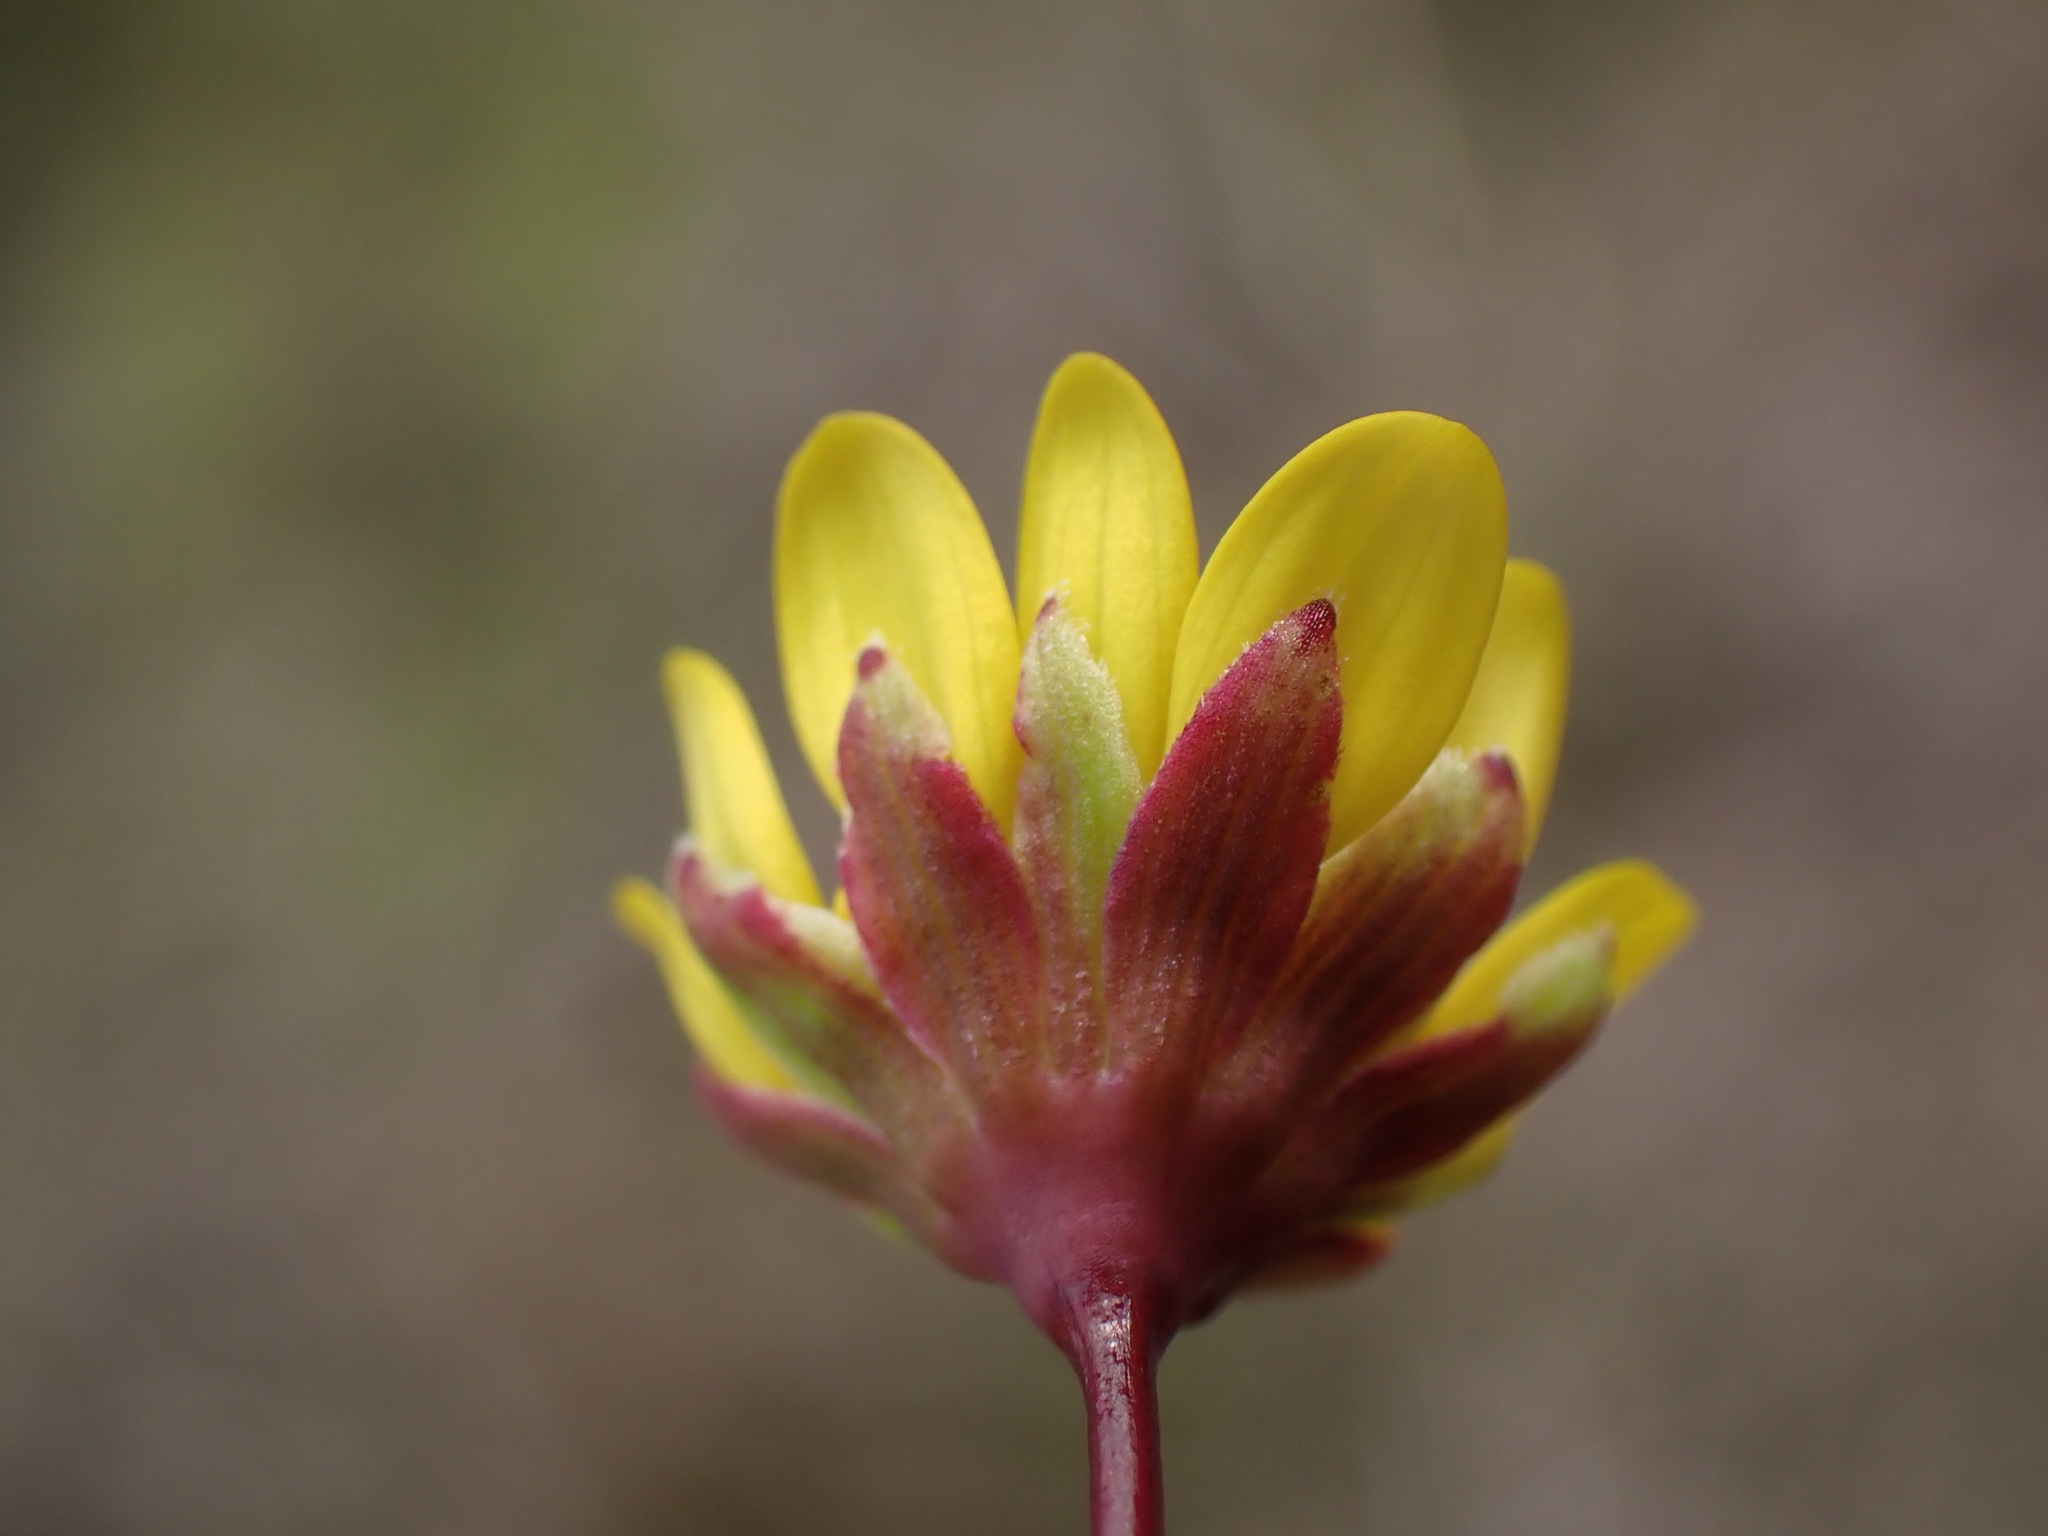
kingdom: Plantae
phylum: Tracheophyta
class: Magnoliopsida
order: Asterales
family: Asteraceae
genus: Crocidium
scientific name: Crocidium multicaule
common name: Common spring gold
